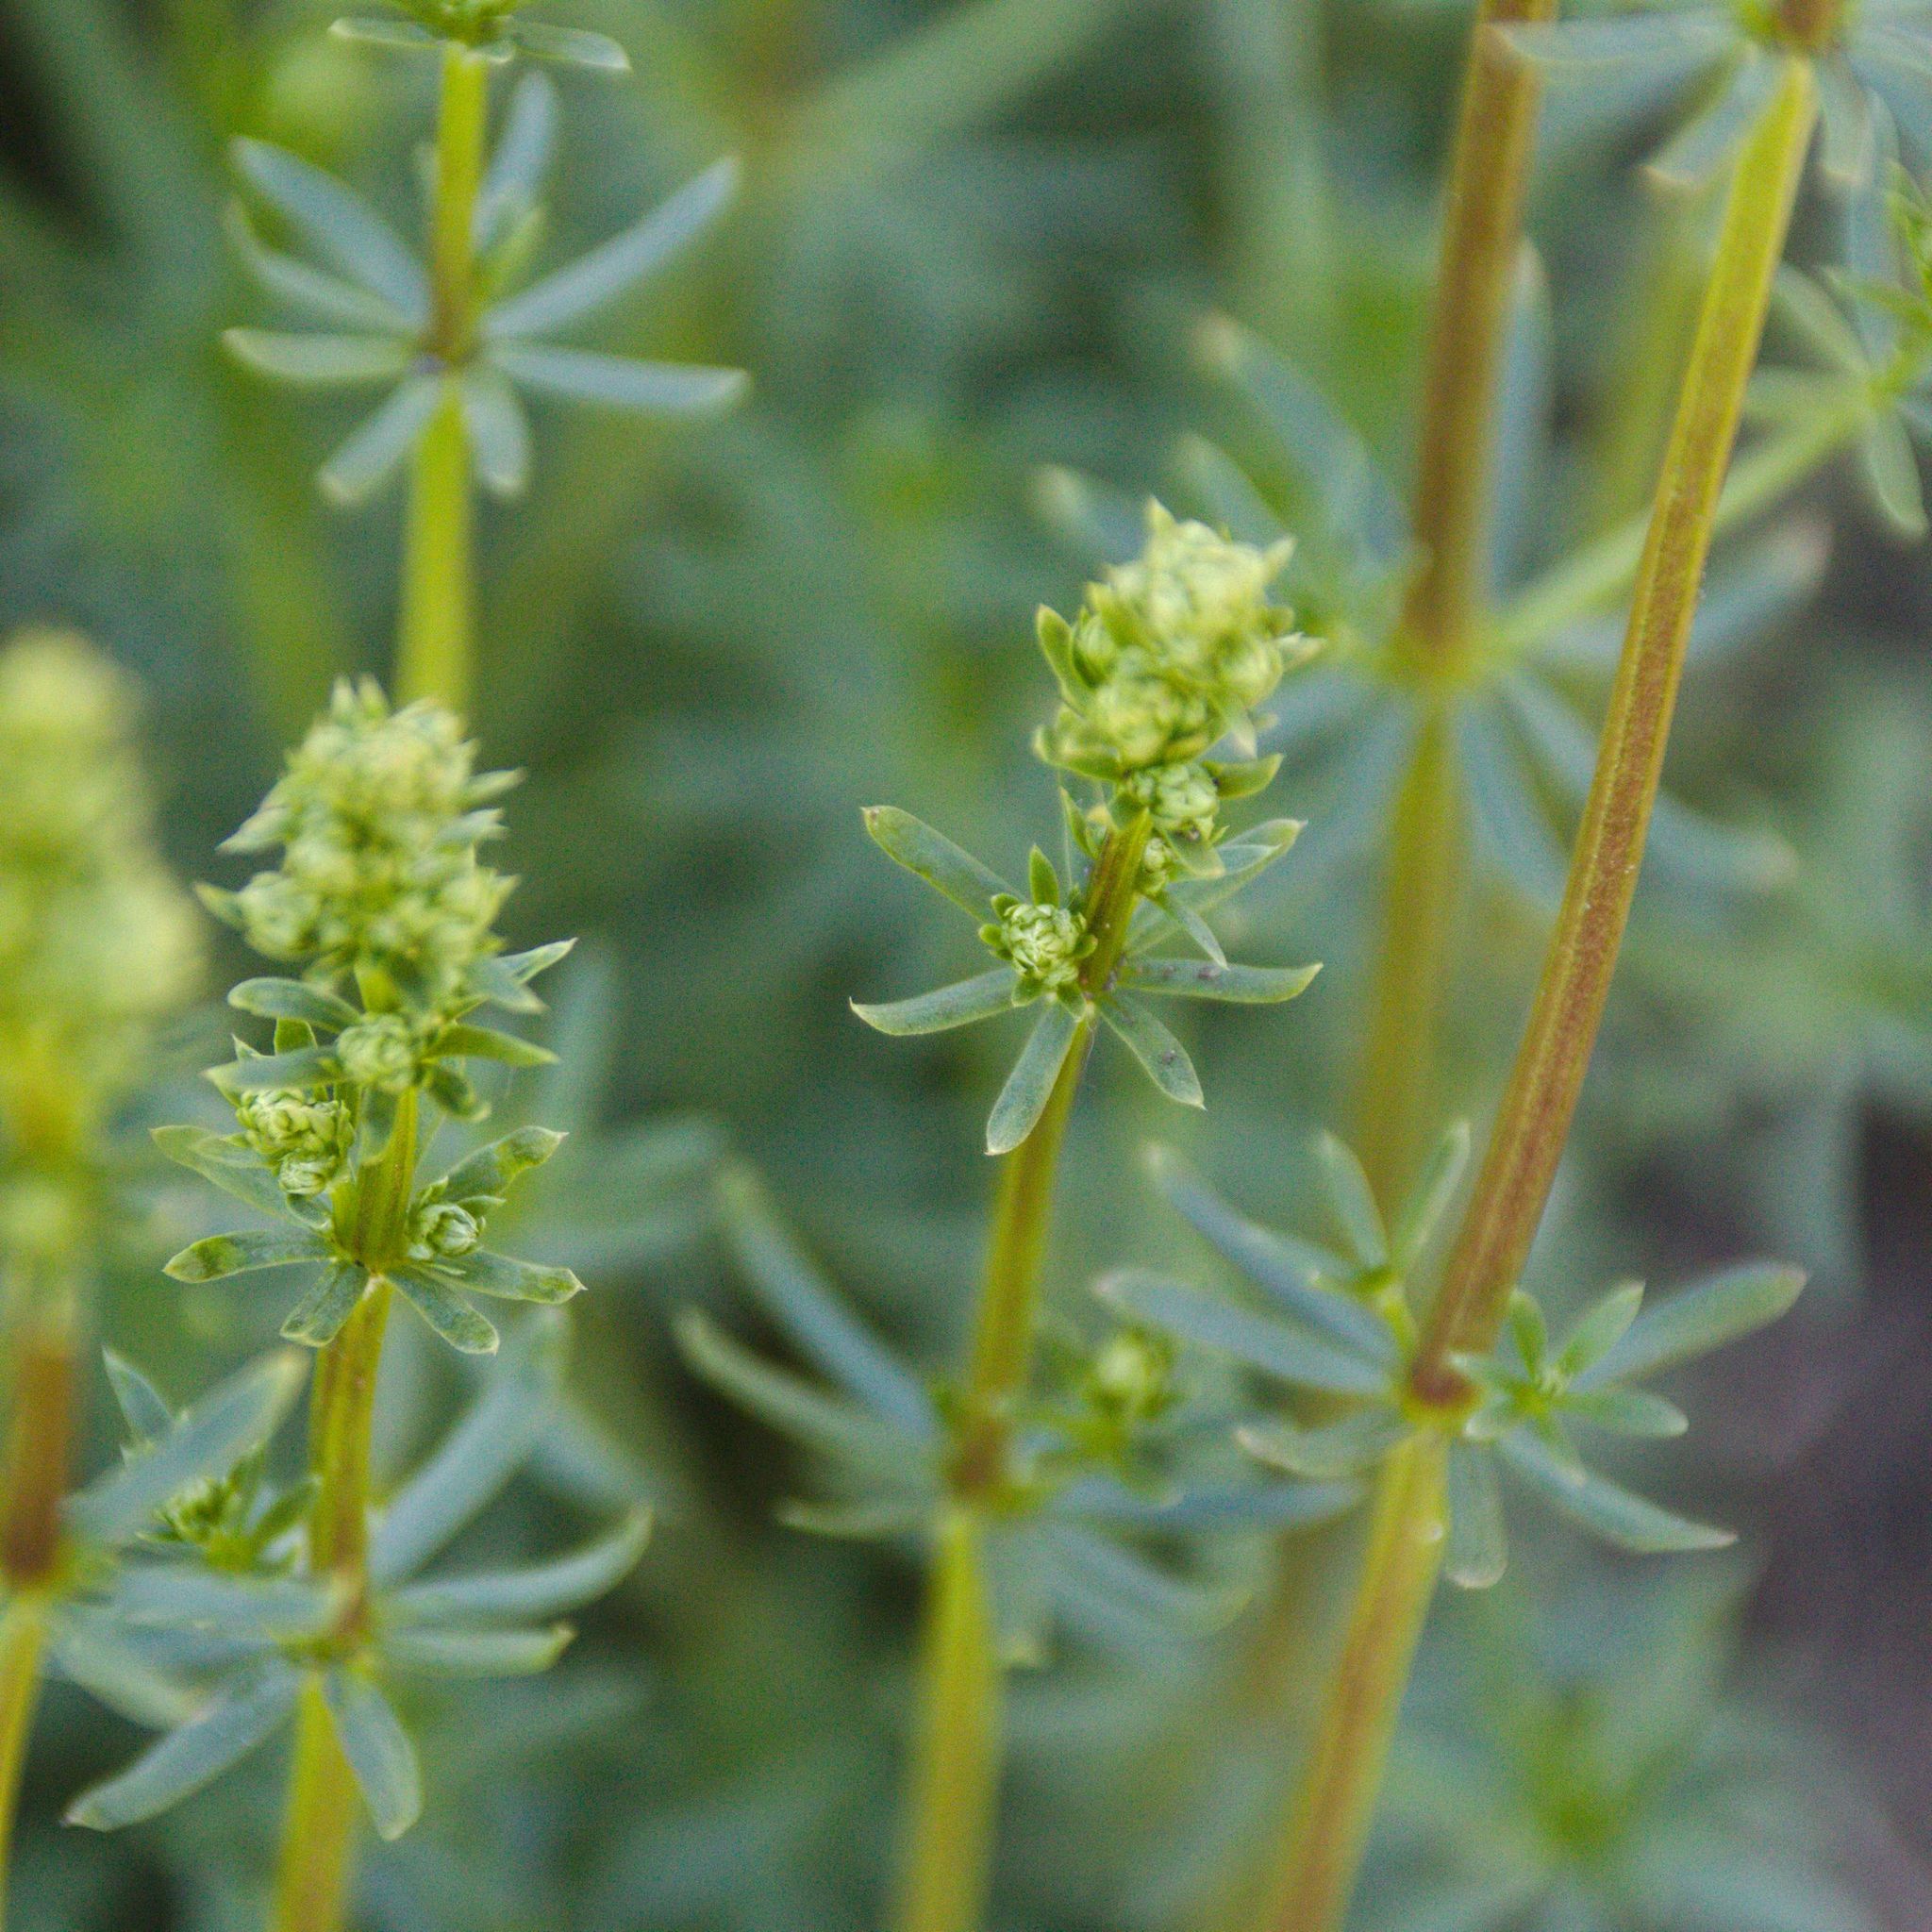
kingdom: Plantae
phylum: Tracheophyta
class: Magnoliopsida
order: Gentianales
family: Rubiaceae
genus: Galium
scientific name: Galium mollugo
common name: Hedge bedstraw
